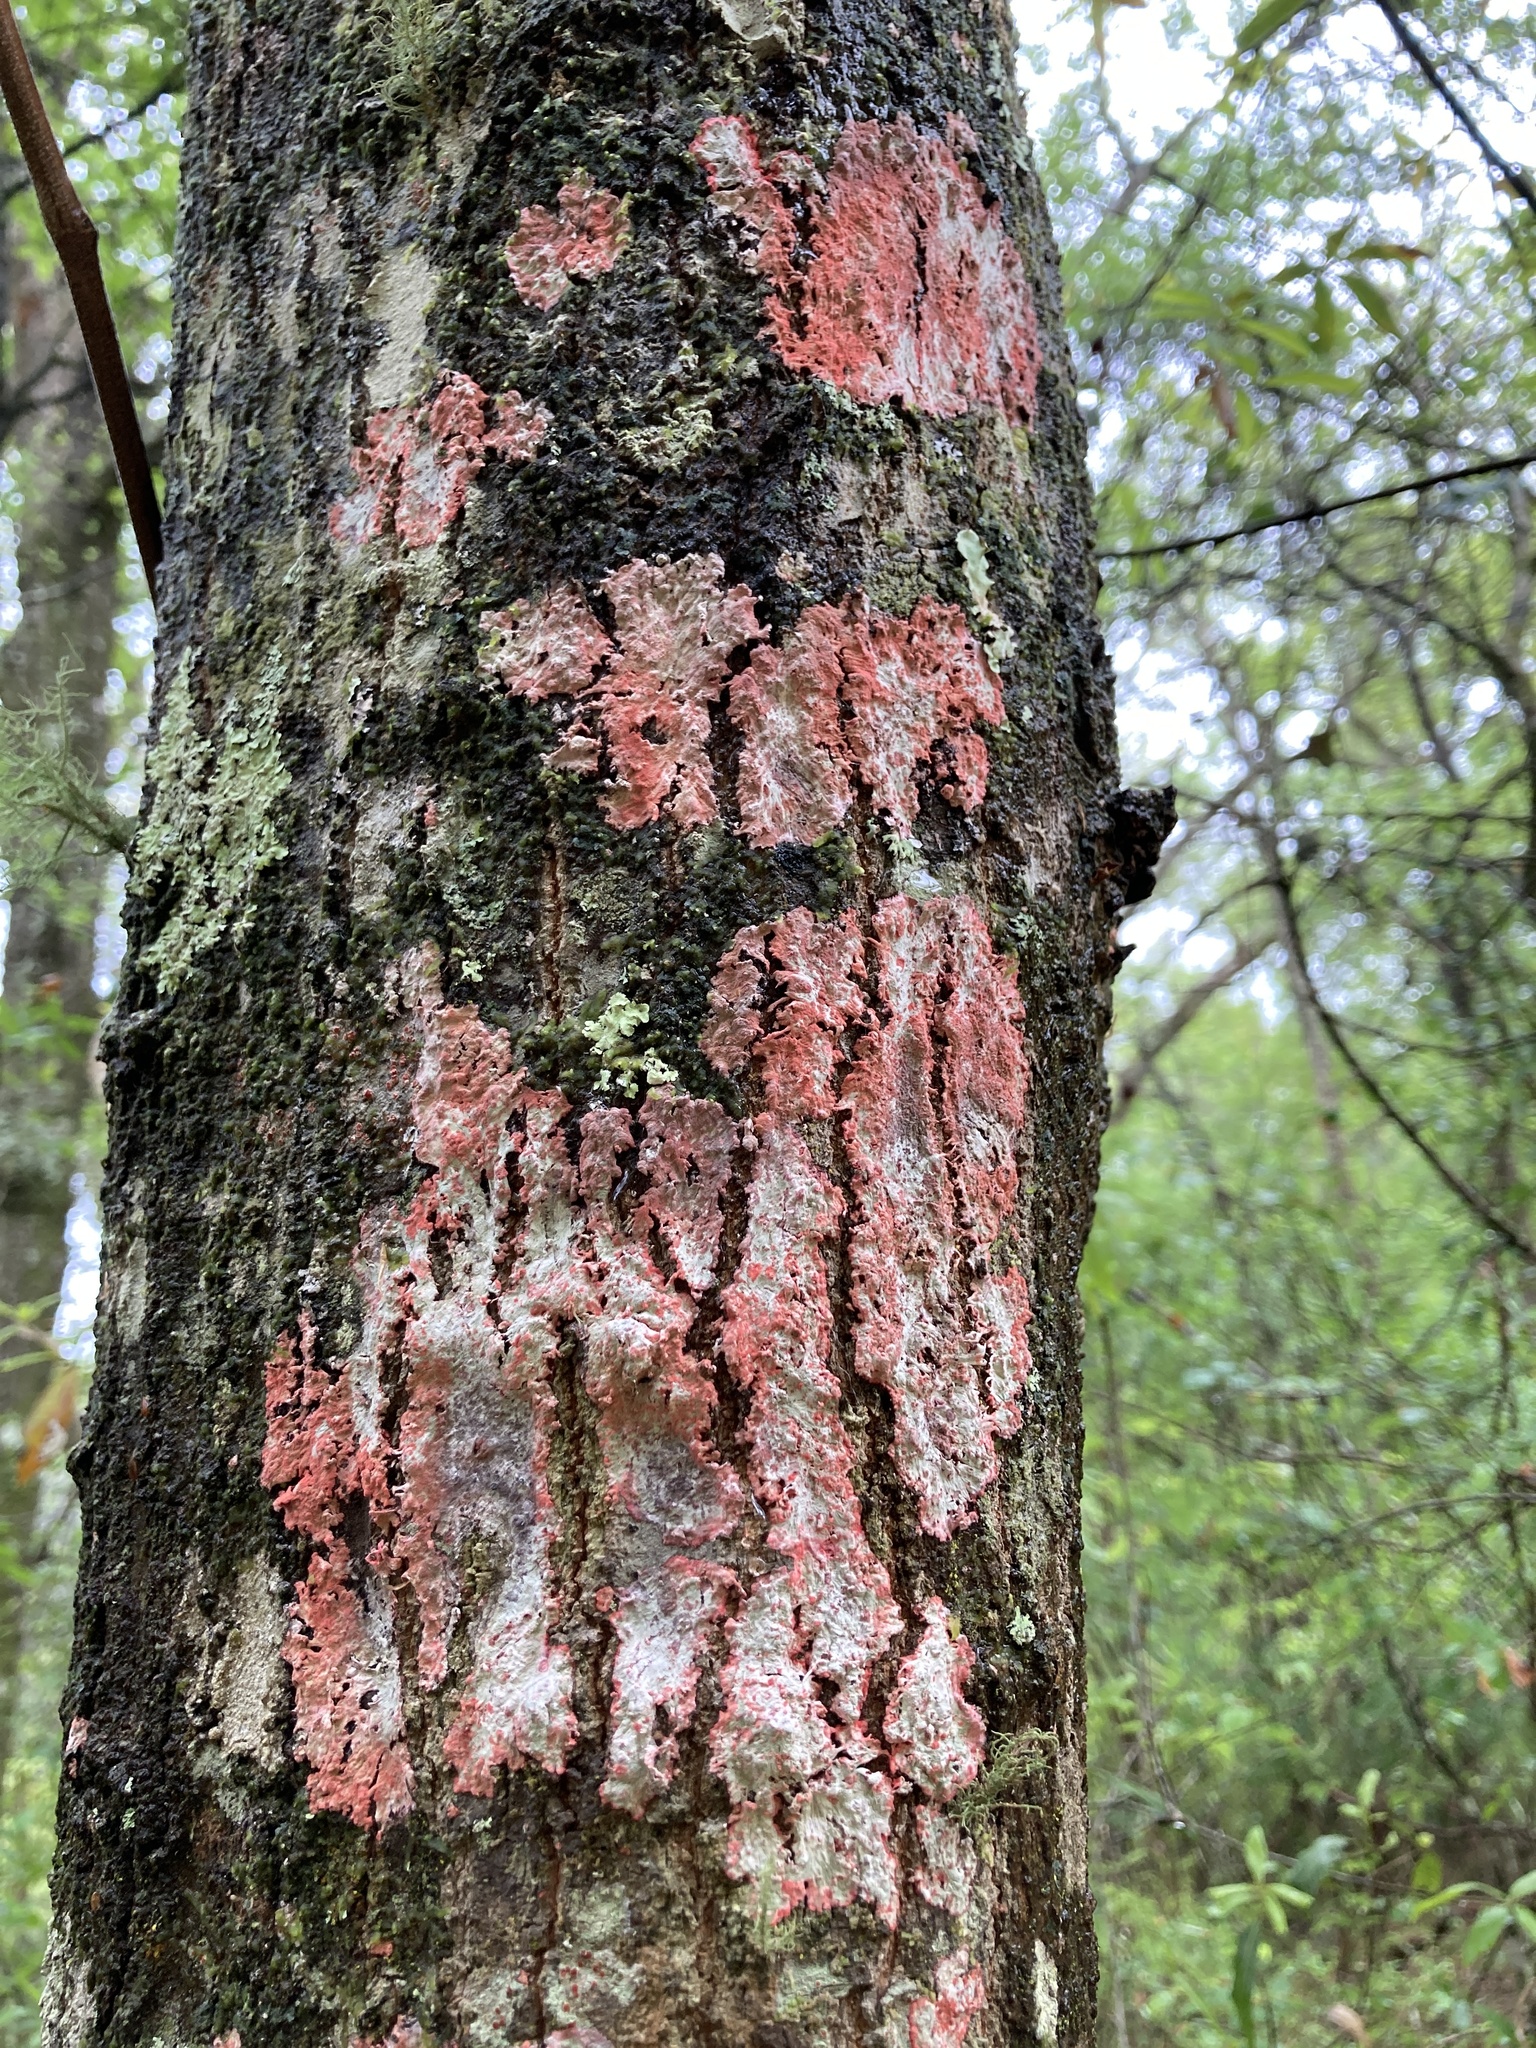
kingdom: Fungi
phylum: Ascomycota
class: Arthoniomycetes
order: Arthoniales
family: Arthoniaceae
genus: Herpothallon
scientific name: Herpothallon rubrocinctum
